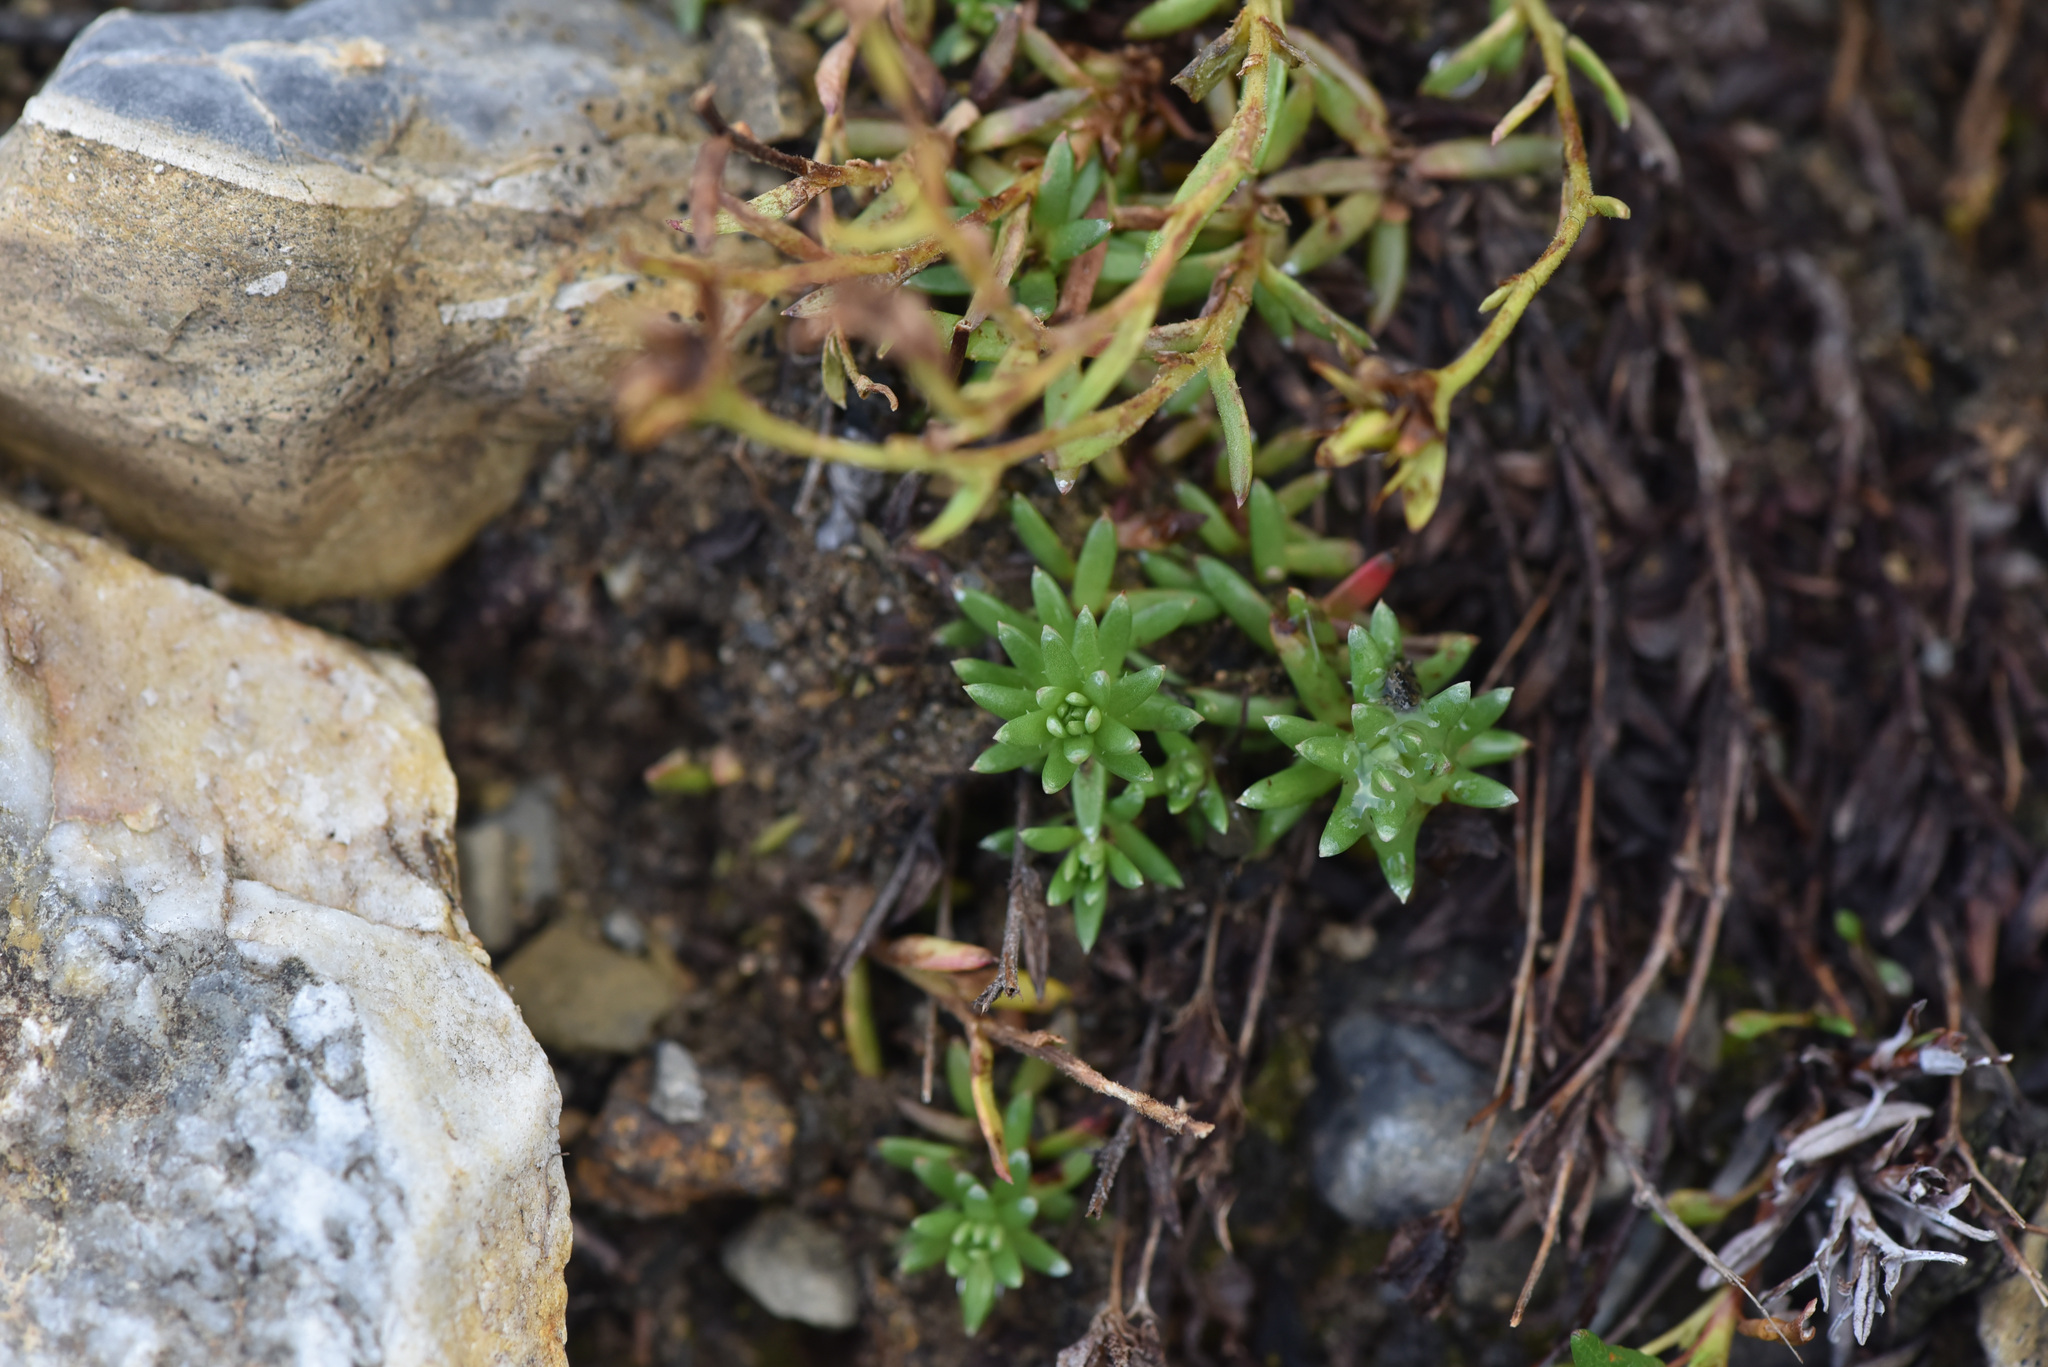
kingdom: Plantae
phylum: Tracheophyta
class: Magnoliopsida
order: Saxifragales
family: Saxifragaceae
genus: Saxifraga
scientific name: Saxifraga aizoides
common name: Yellow mountain saxifrage
